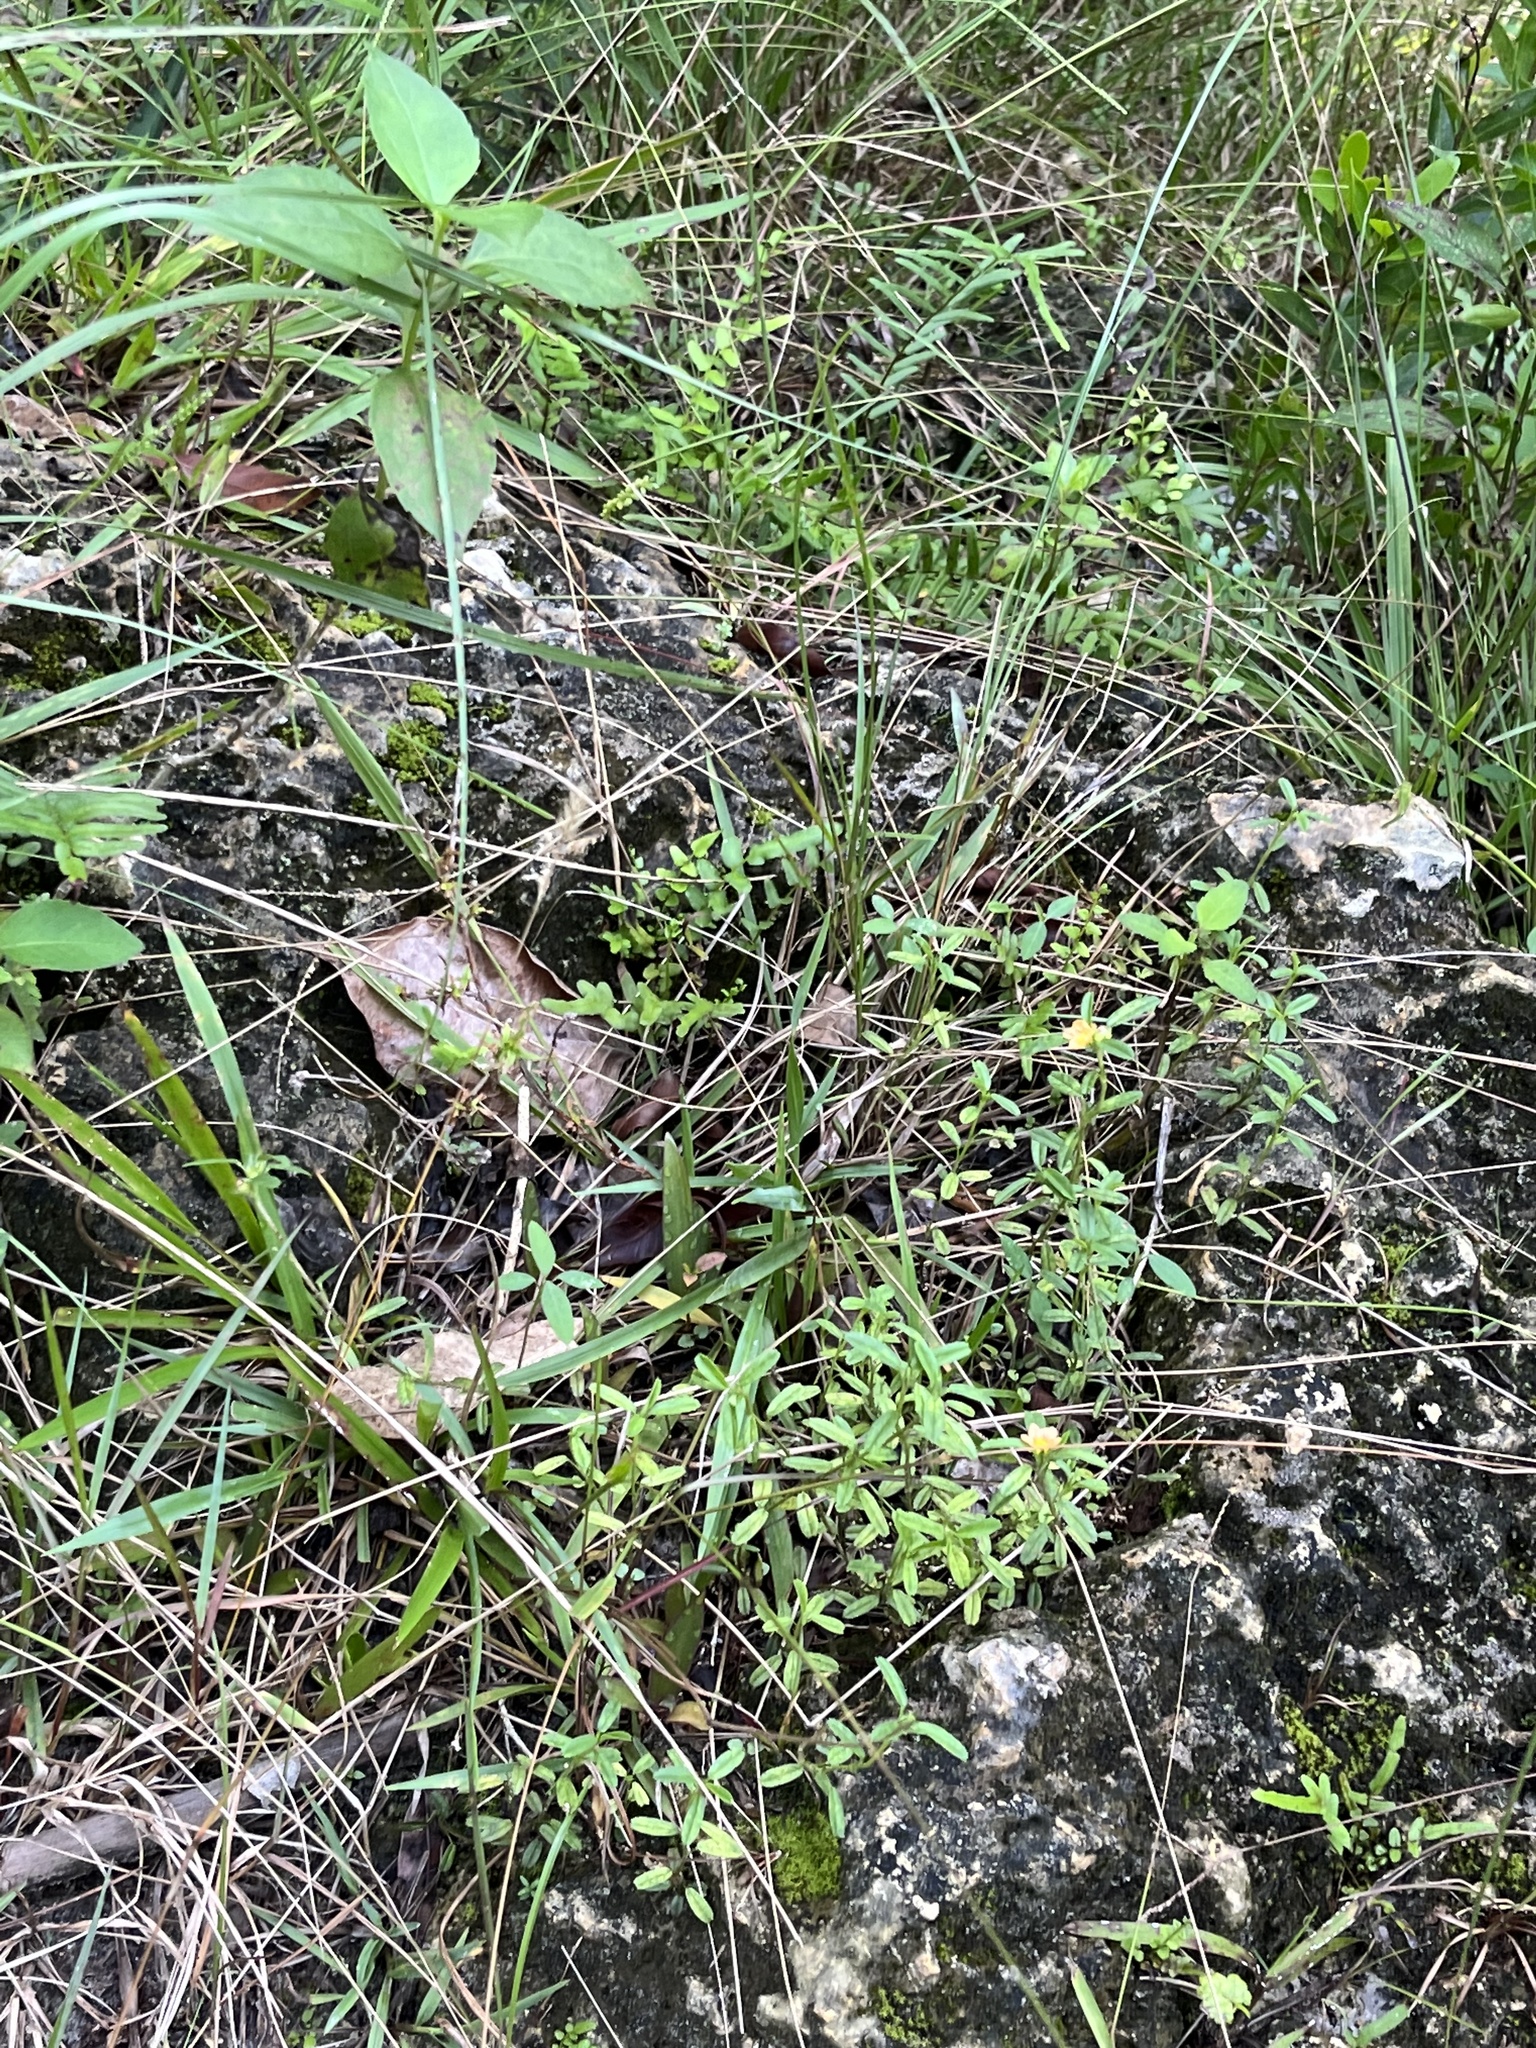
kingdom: Plantae
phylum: Tracheophyta
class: Magnoliopsida
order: Malvales
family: Malvaceae
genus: Sida
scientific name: Sida ciliaris
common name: Bracted fanpetals
